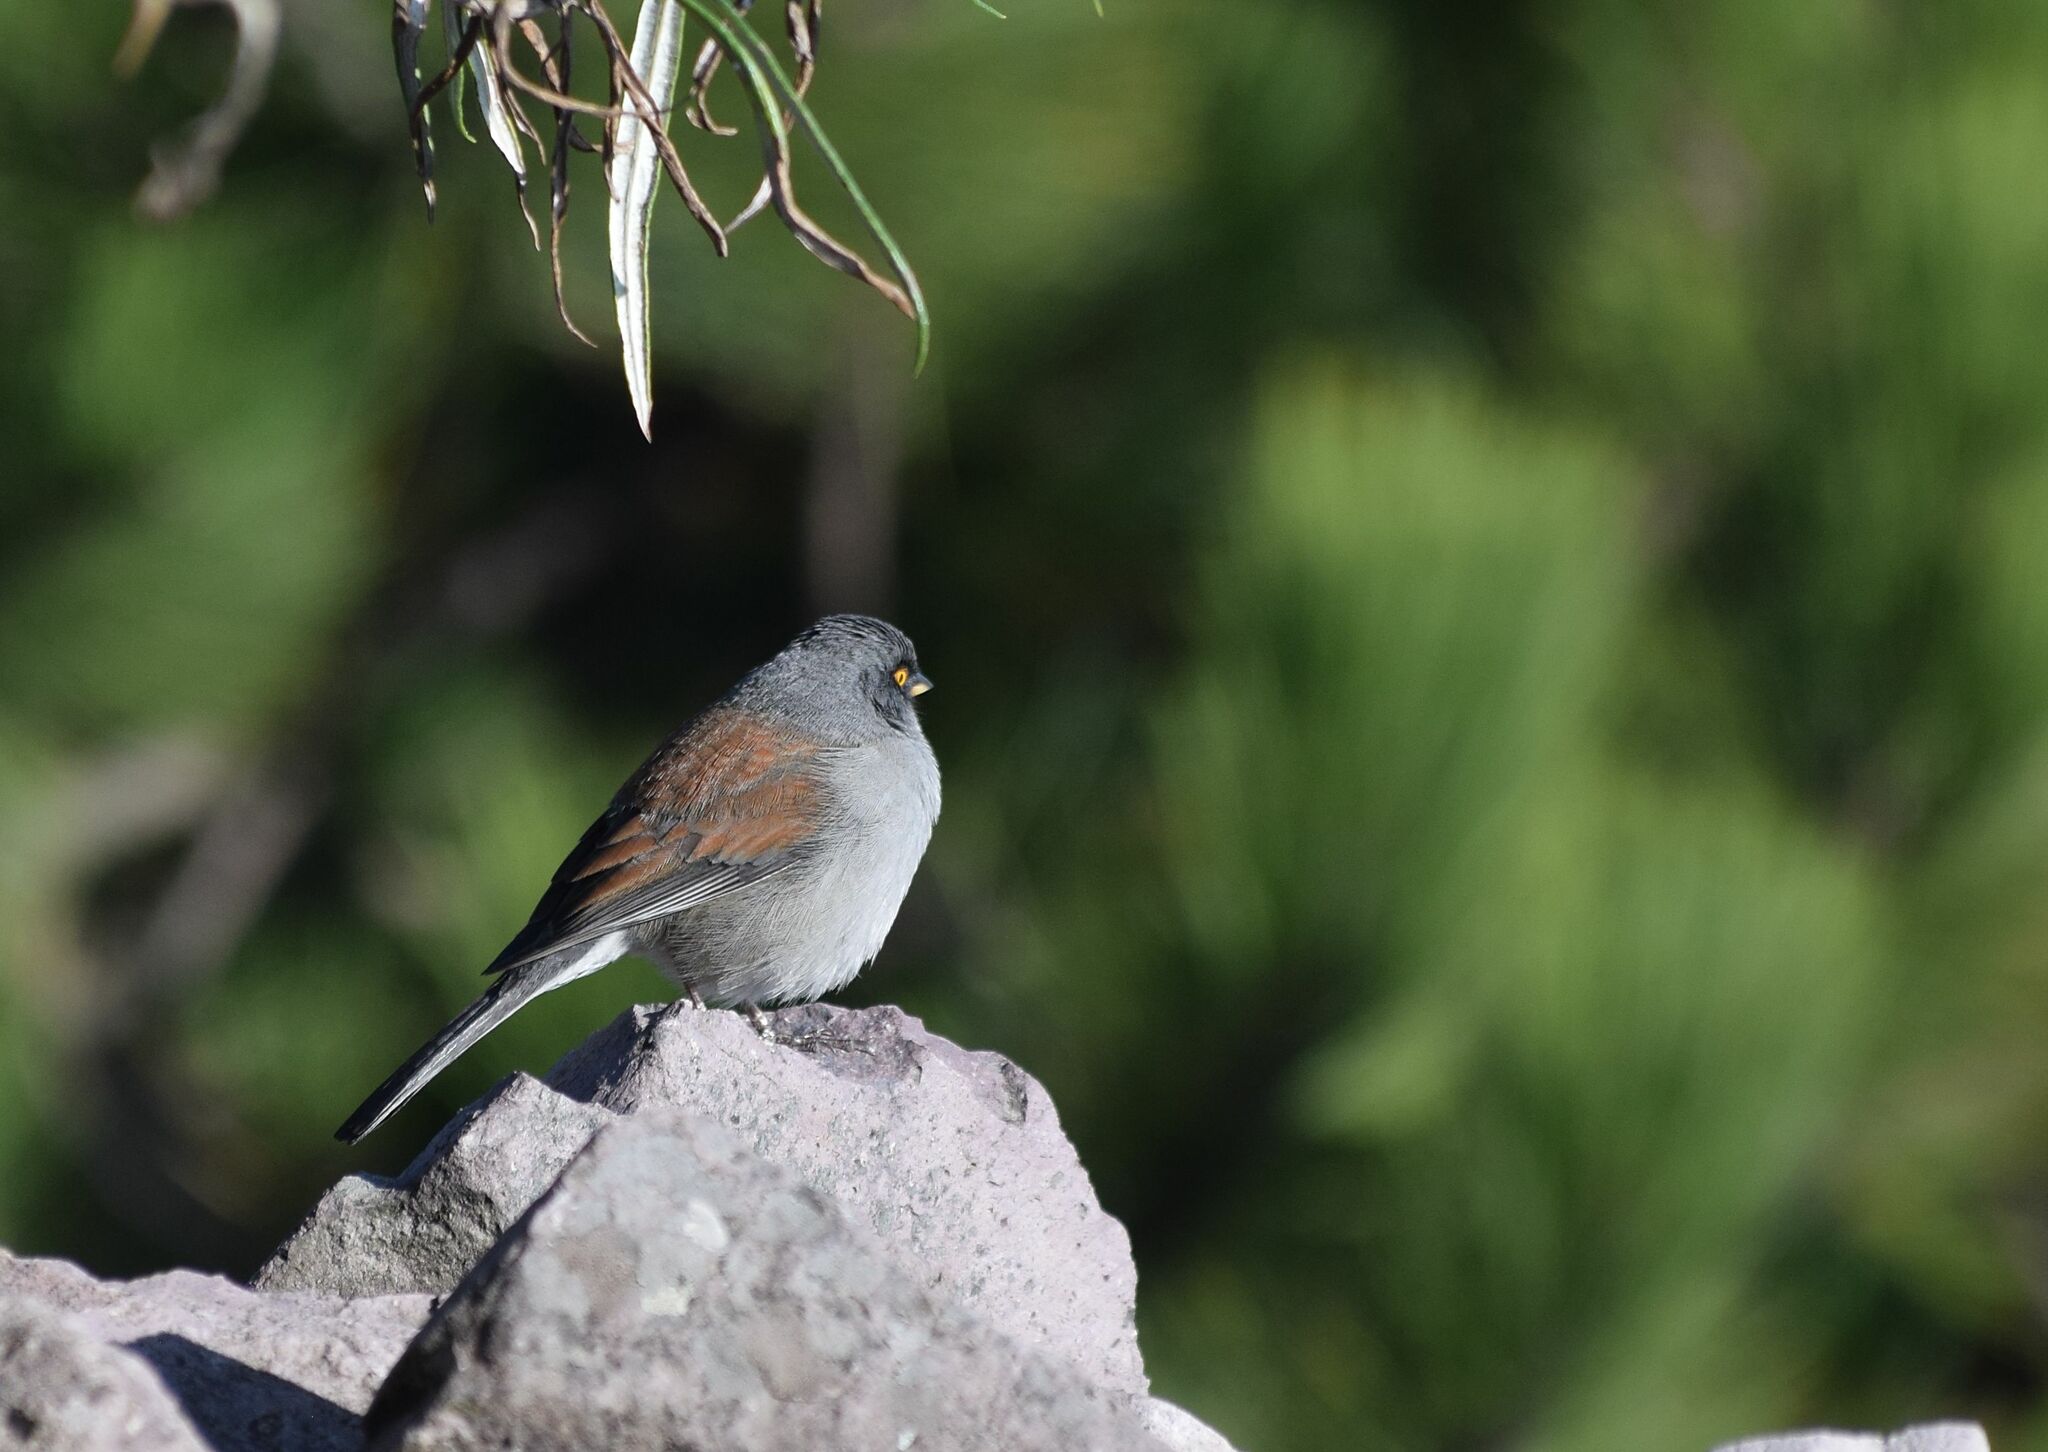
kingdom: Animalia
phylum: Chordata
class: Aves
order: Passeriformes
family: Passerellidae
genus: Junco
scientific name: Junco phaeonotus
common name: Yellow-eyed junco
